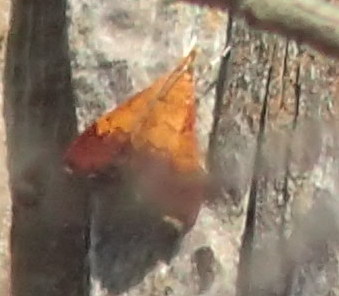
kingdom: Animalia
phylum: Arthropoda
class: Insecta
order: Lepidoptera
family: Crambidae
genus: Pyrausta
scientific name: Pyrausta bicoloralis
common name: Bicolored pyrausta moth
